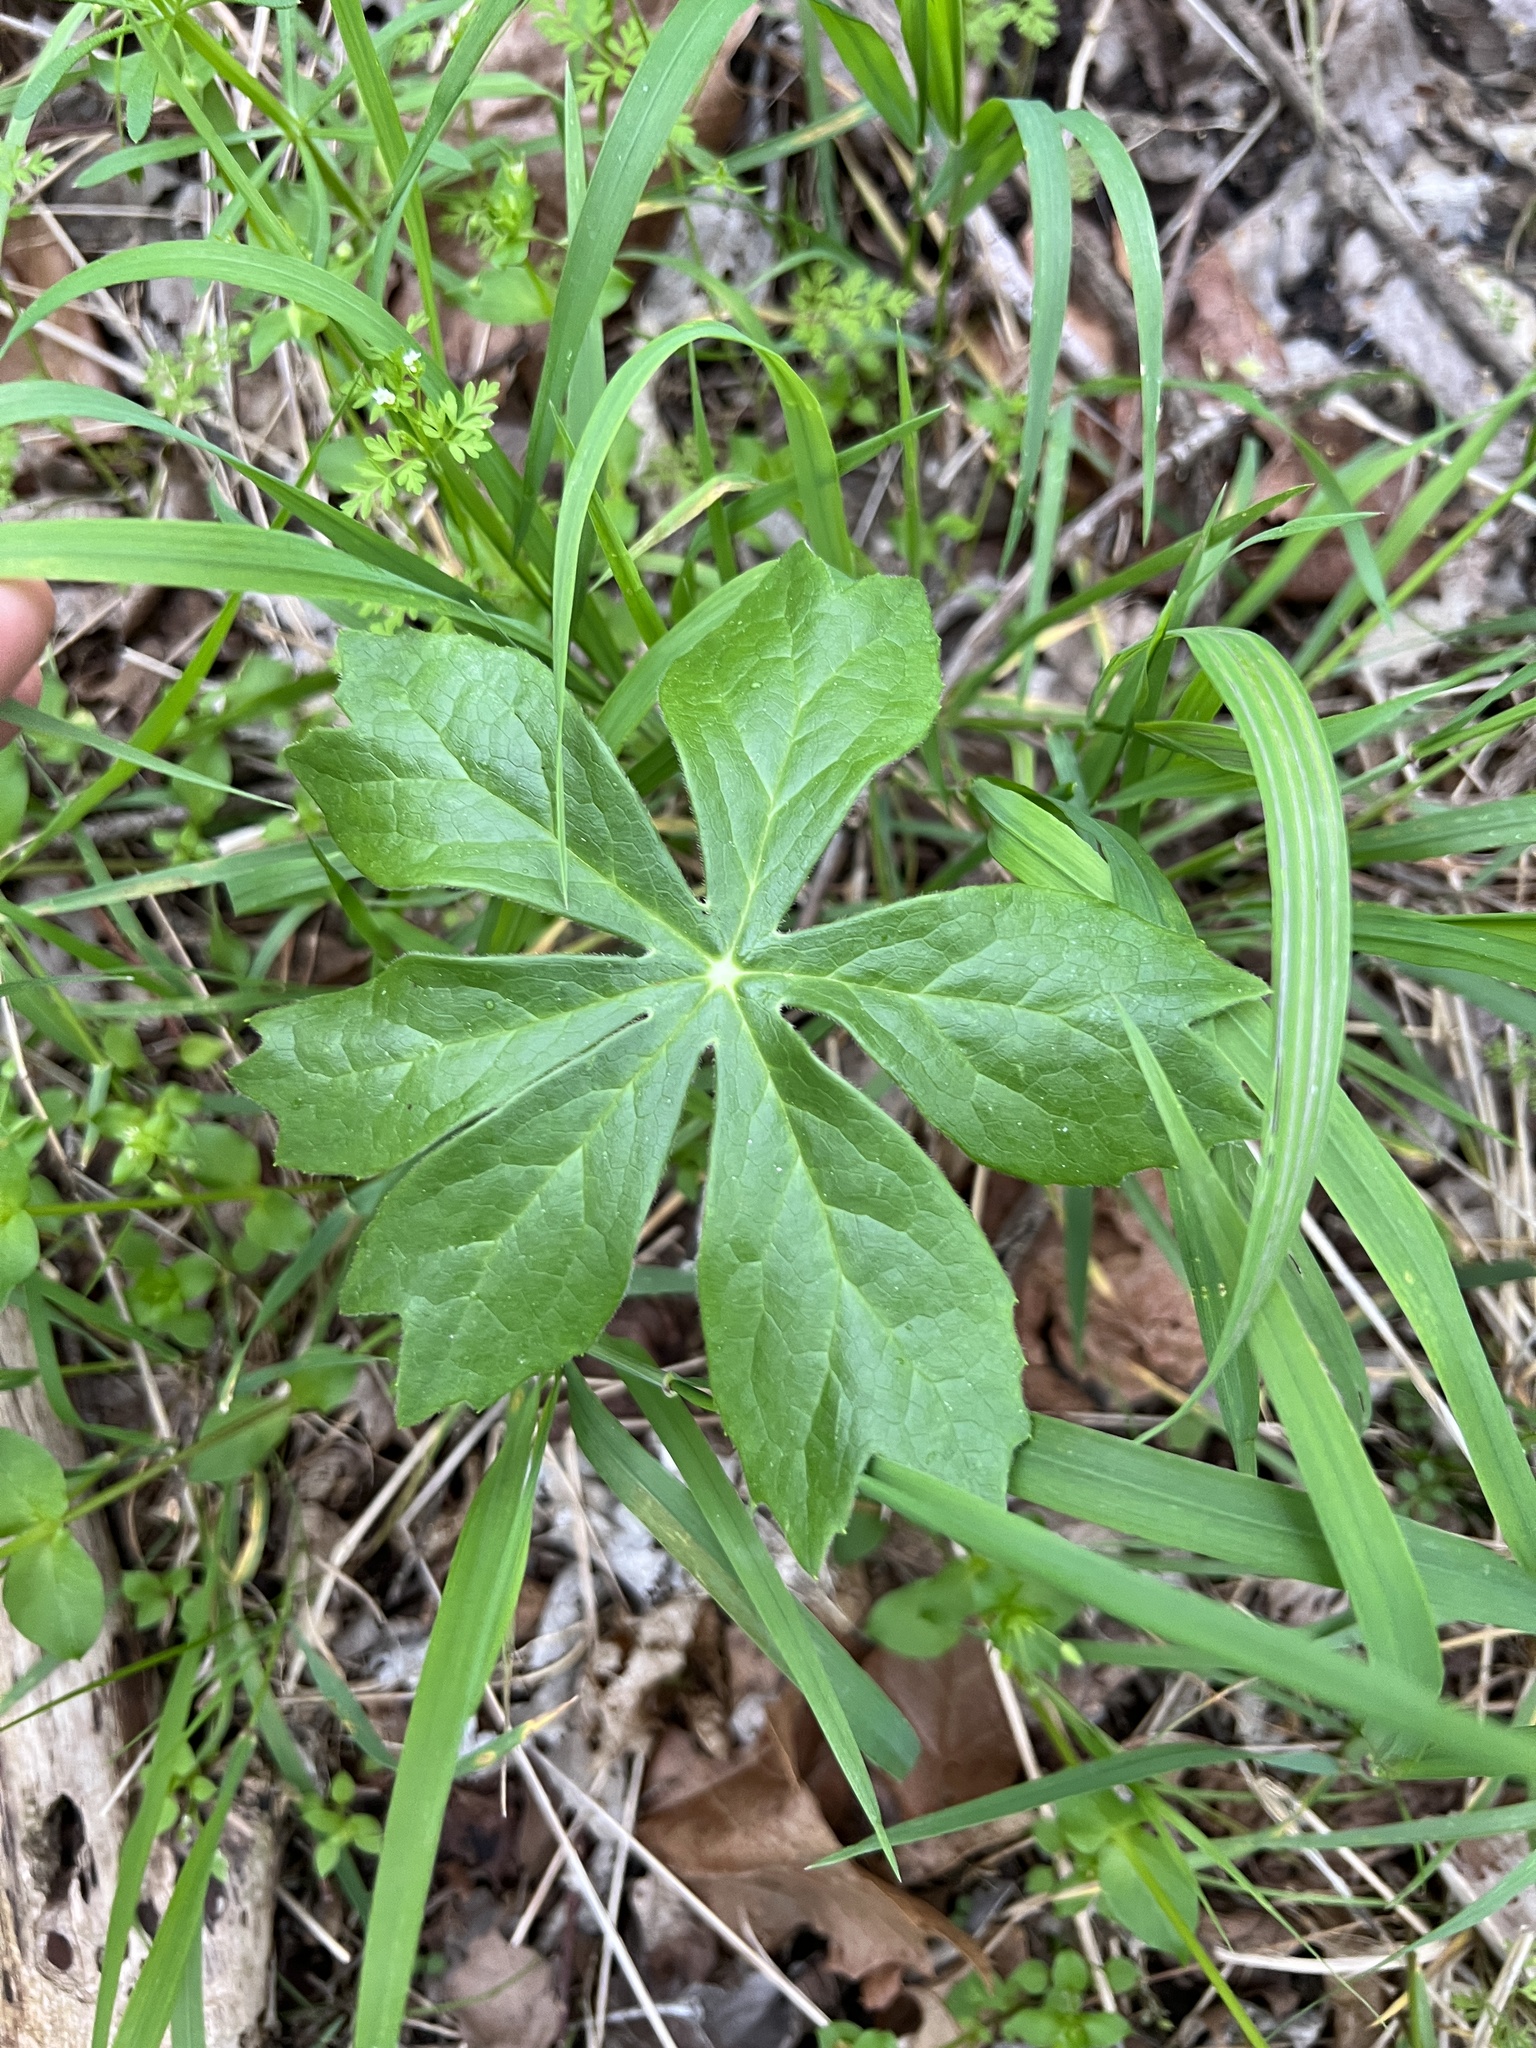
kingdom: Plantae
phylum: Tracheophyta
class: Magnoliopsida
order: Ranunculales
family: Berberidaceae
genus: Podophyllum
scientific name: Podophyllum peltatum
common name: Wild mandrake
